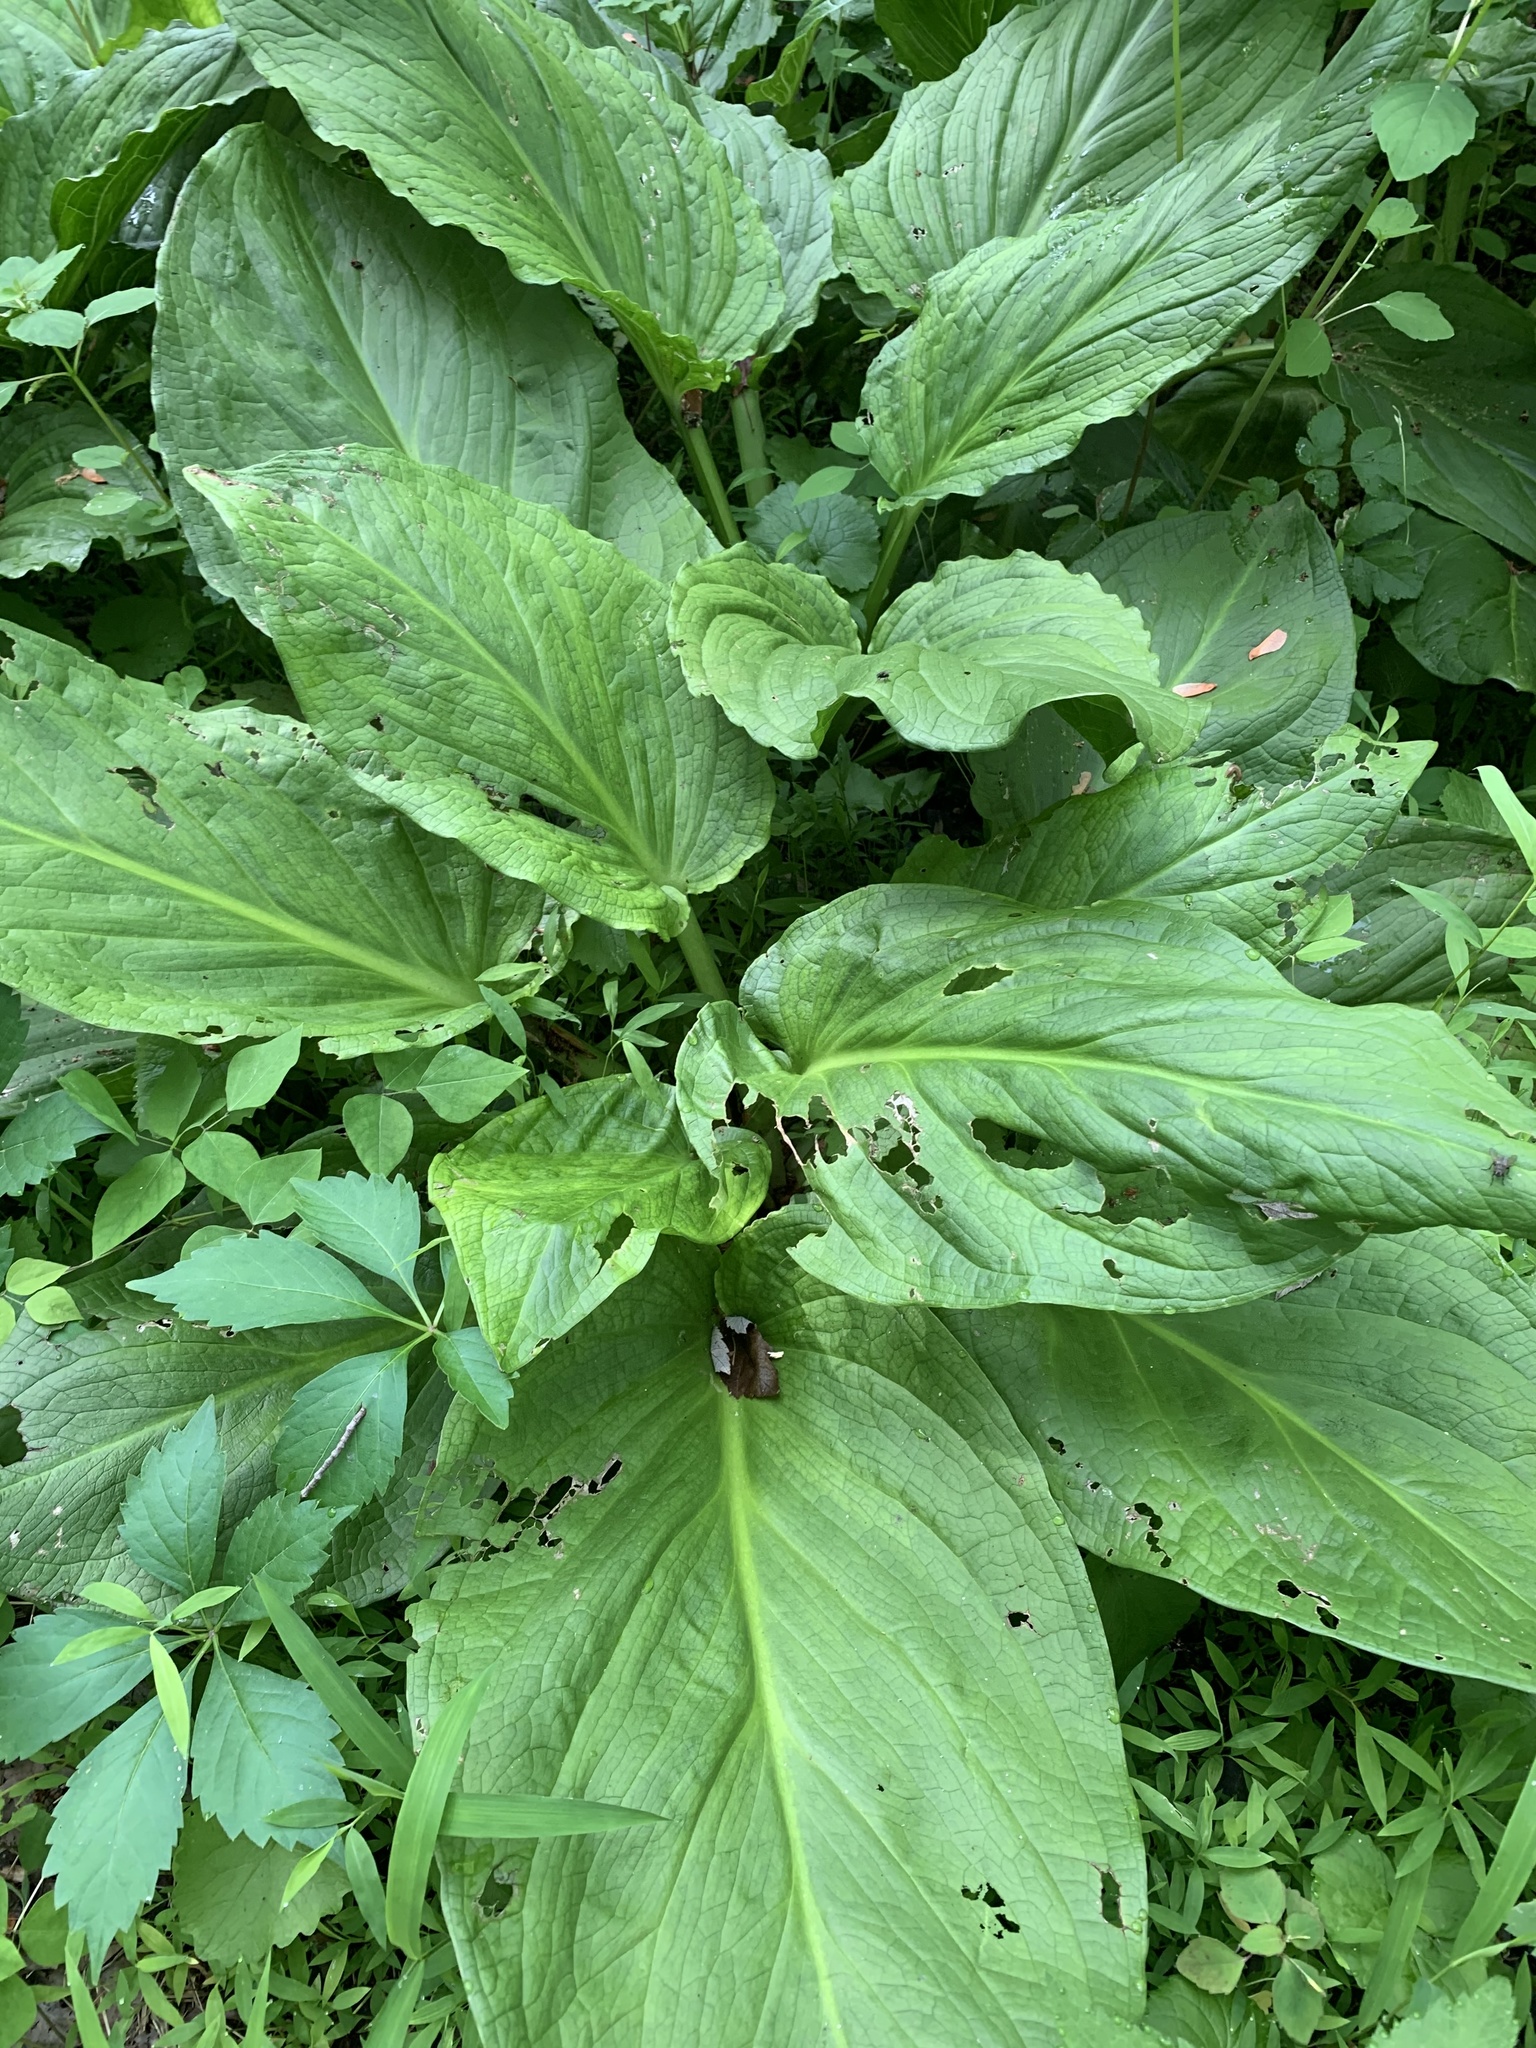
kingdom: Plantae
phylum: Tracheophyta
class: Liliopsida
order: Alismatales
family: Araceae
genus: Symplocarpus
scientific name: Symplocarpus foetidus
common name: Eastern skunk cabbage
